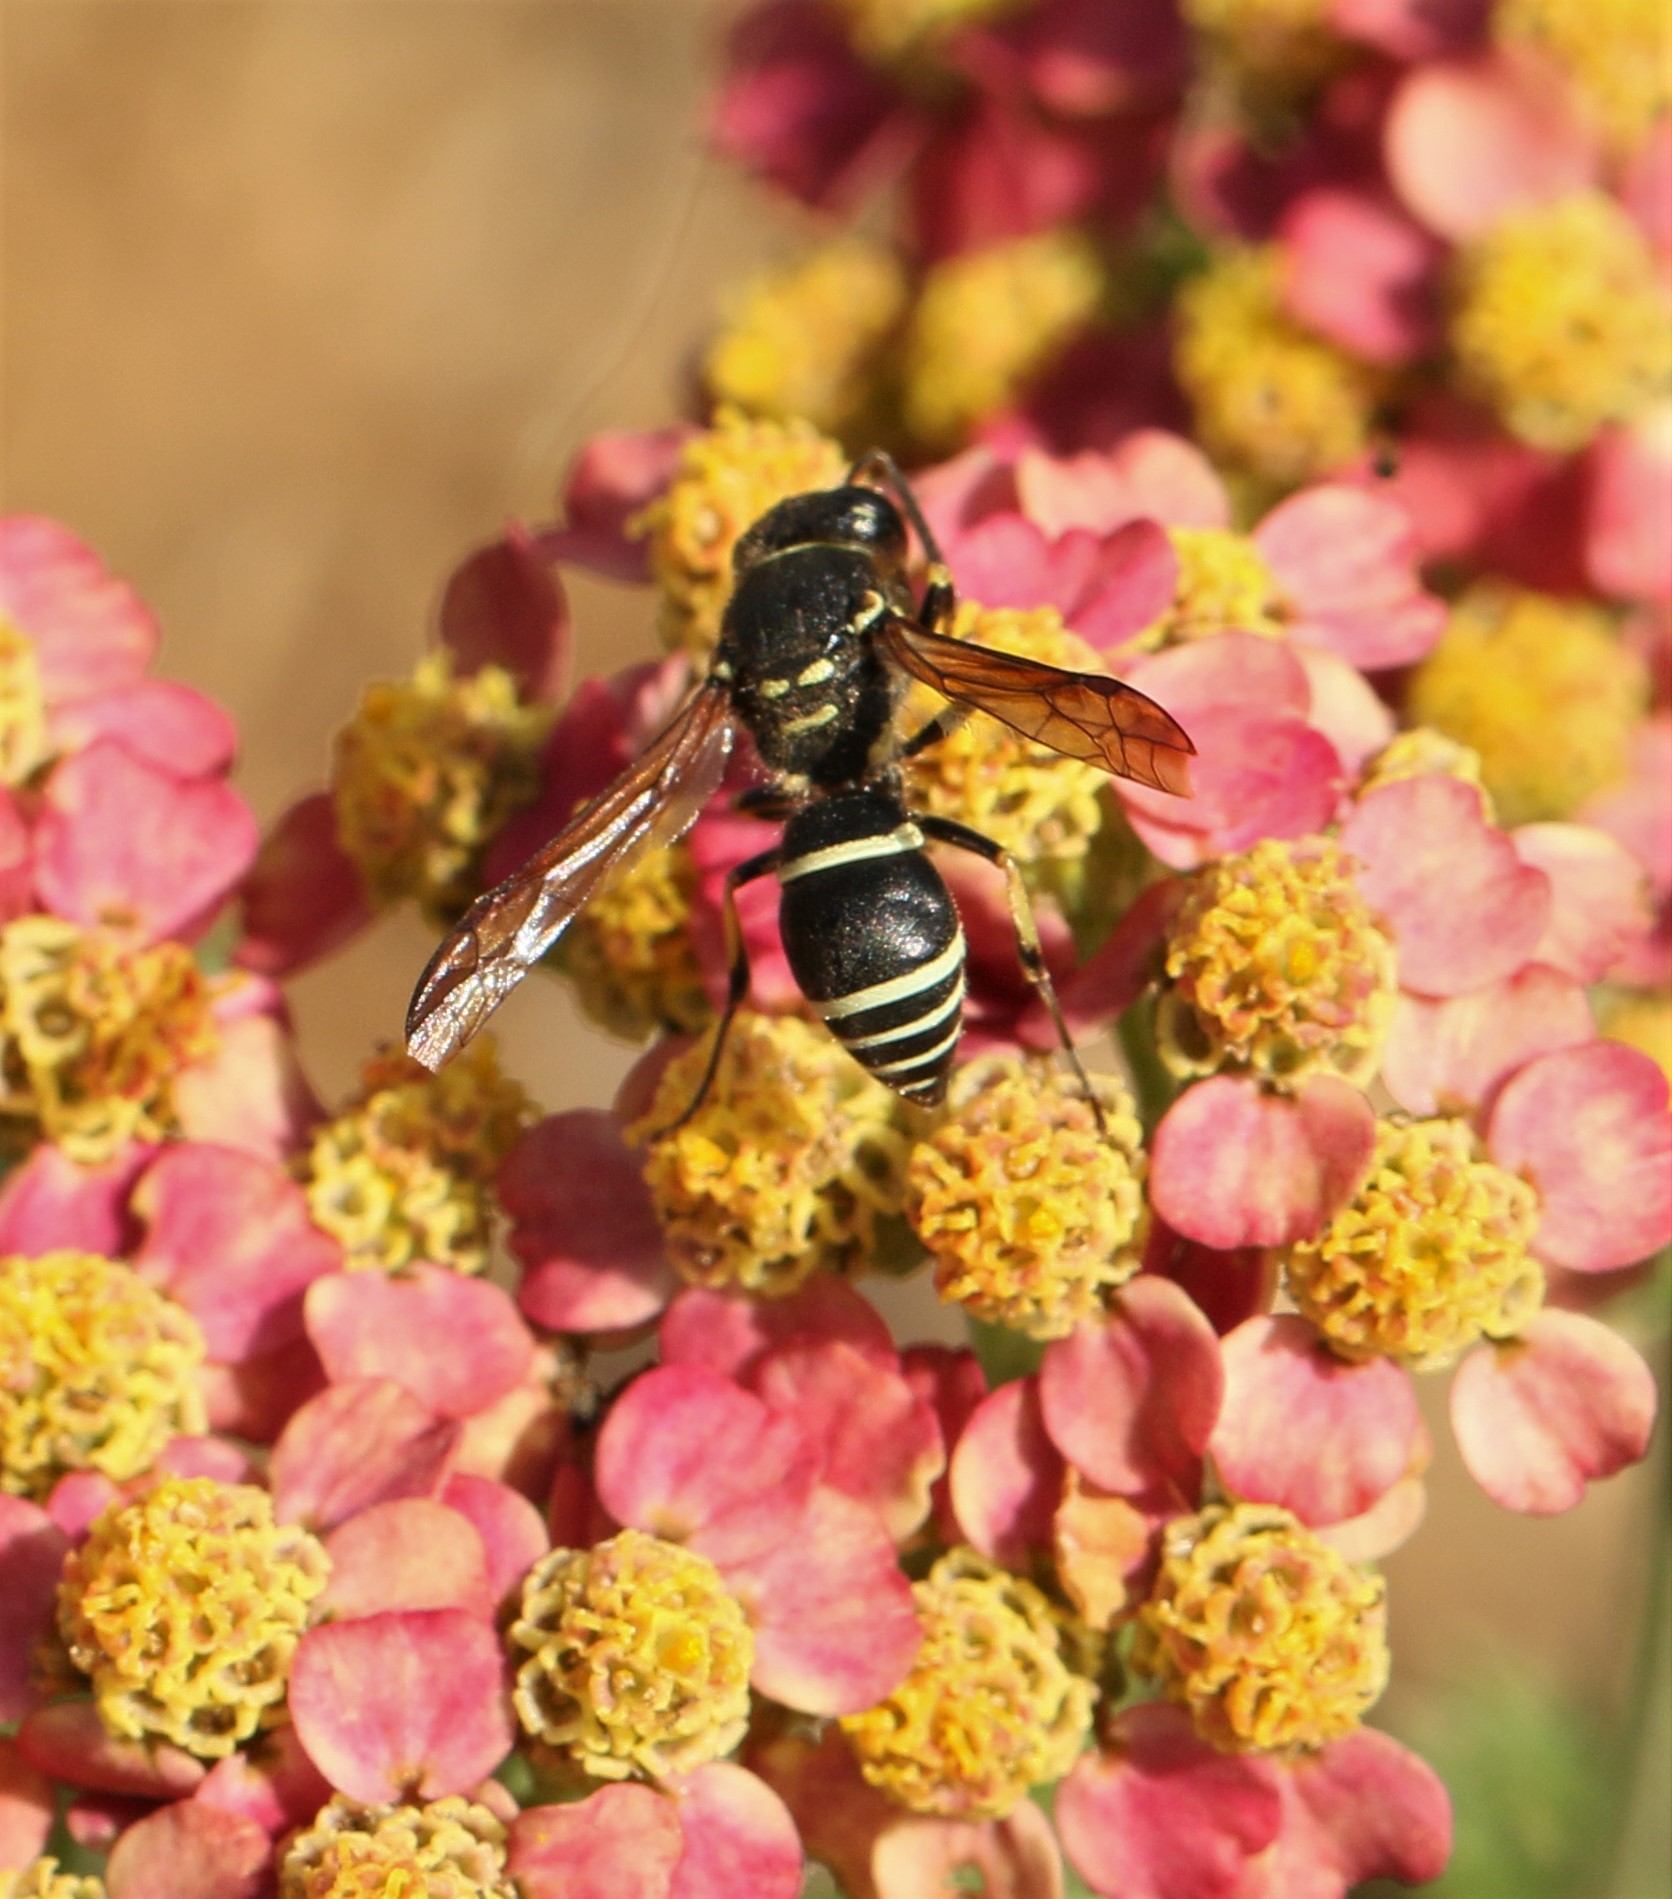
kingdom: Animalia
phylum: Arthropoda
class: Insecta
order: Hymenoptera
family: Vespidae
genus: Ancistrocerus
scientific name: Ancistrocerus catskill
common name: Vespid wasp
